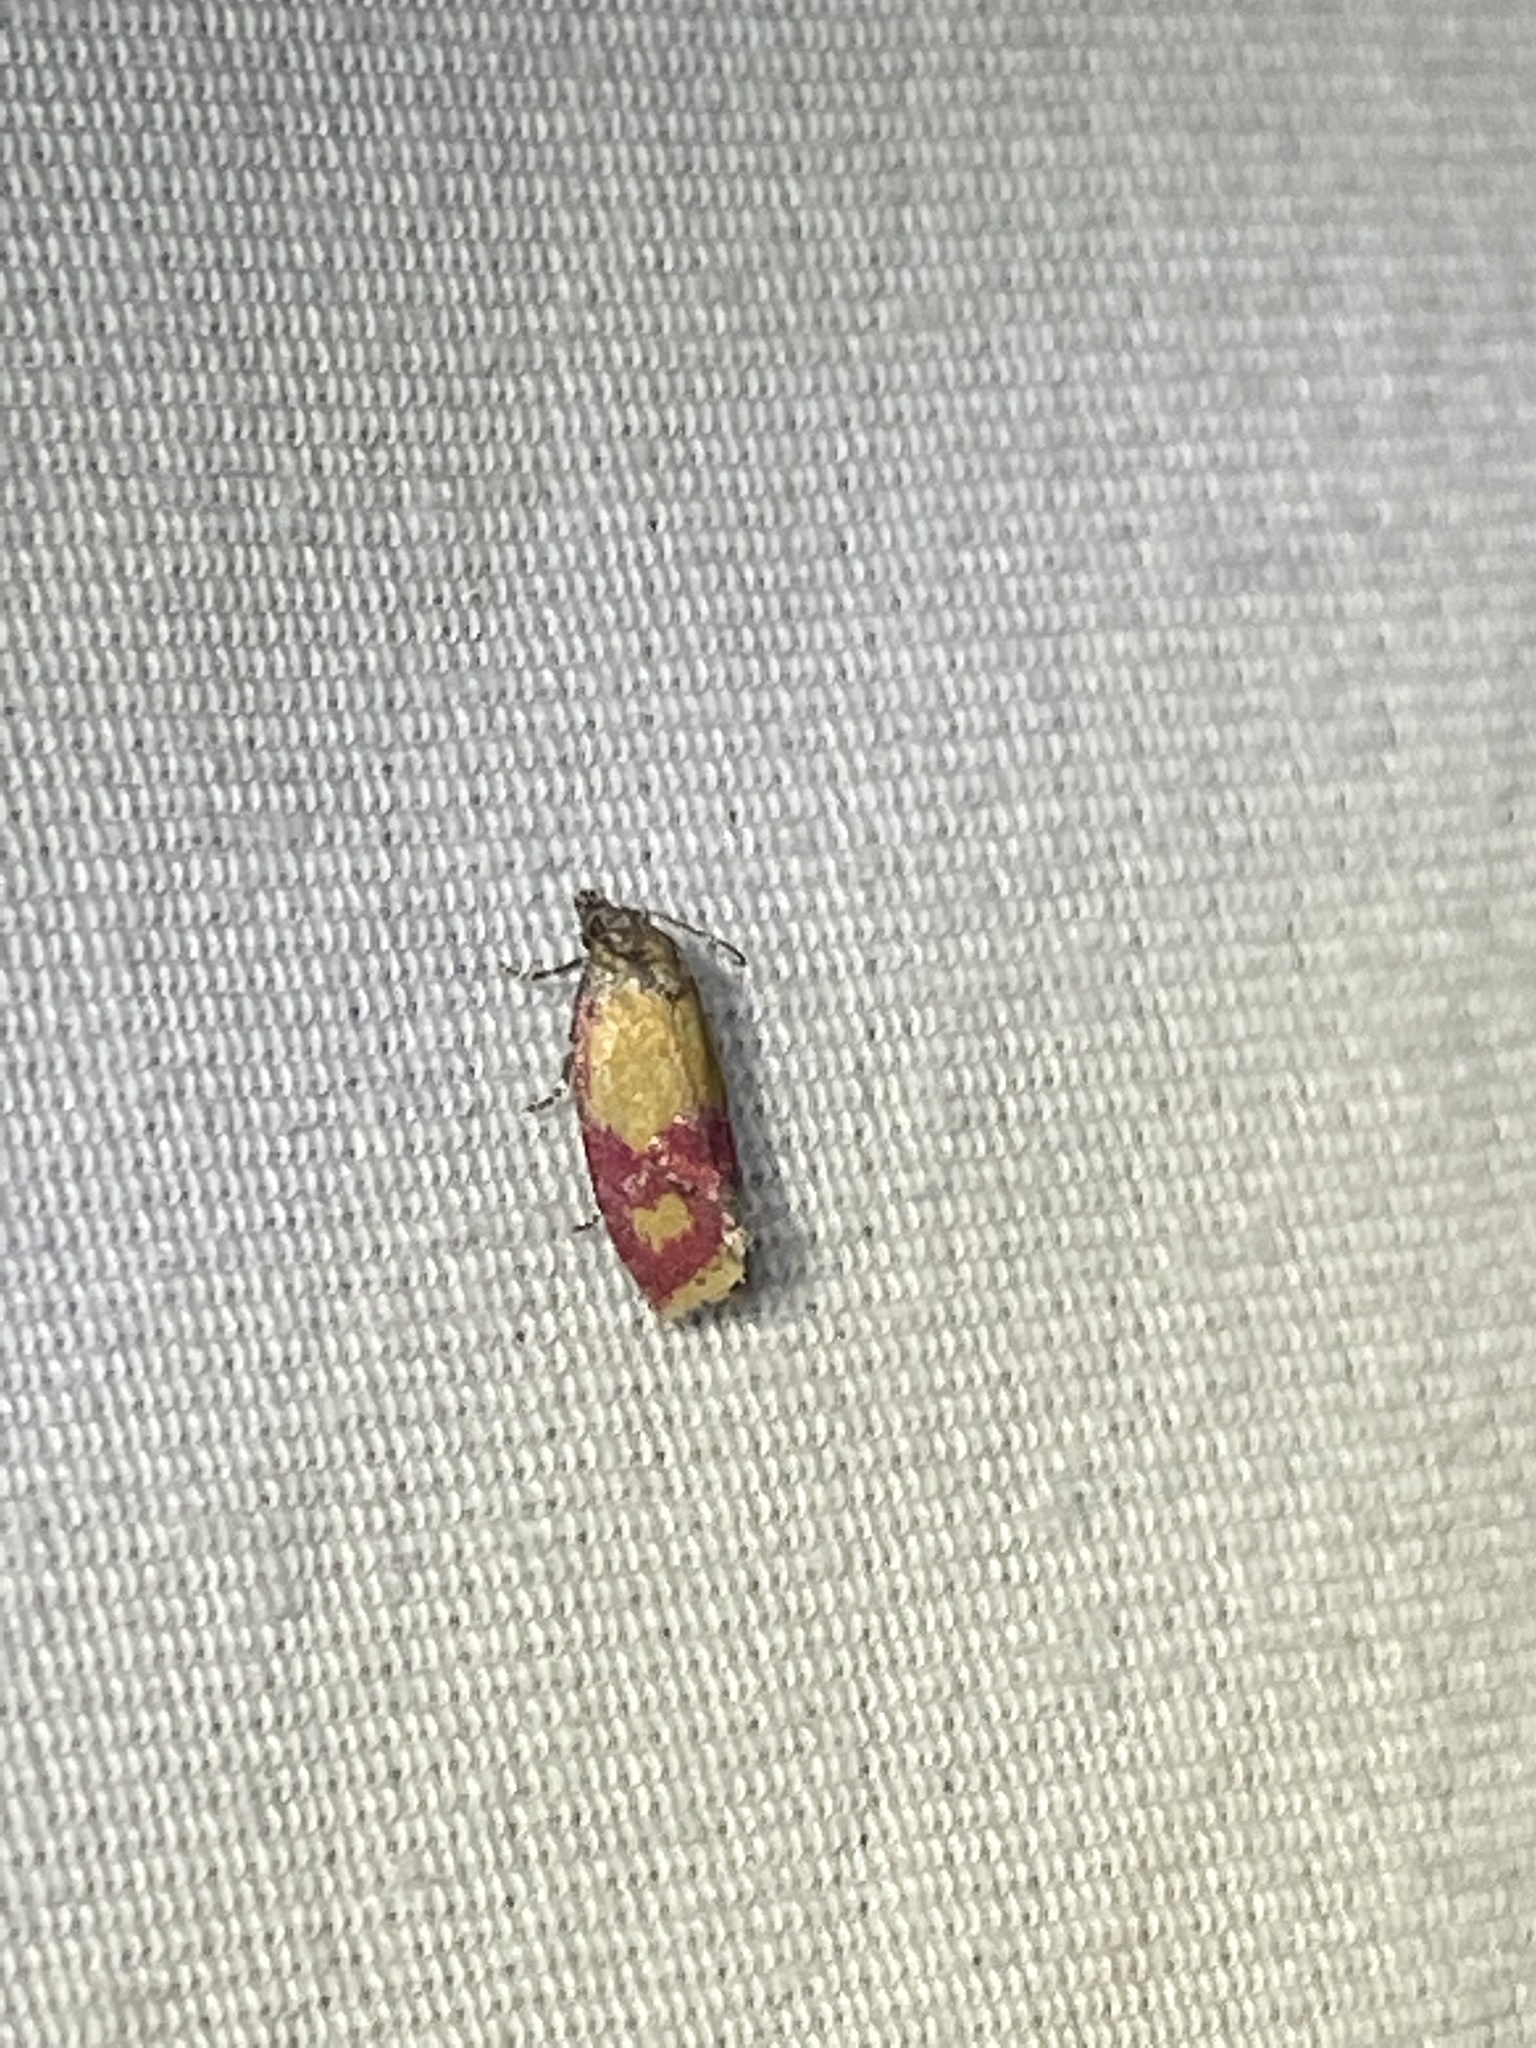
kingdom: Animalia
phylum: Arthropoda
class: Insecta
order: Lepidoptera
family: Tortricidae
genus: Conchylis
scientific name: Conchylis oenotherana
